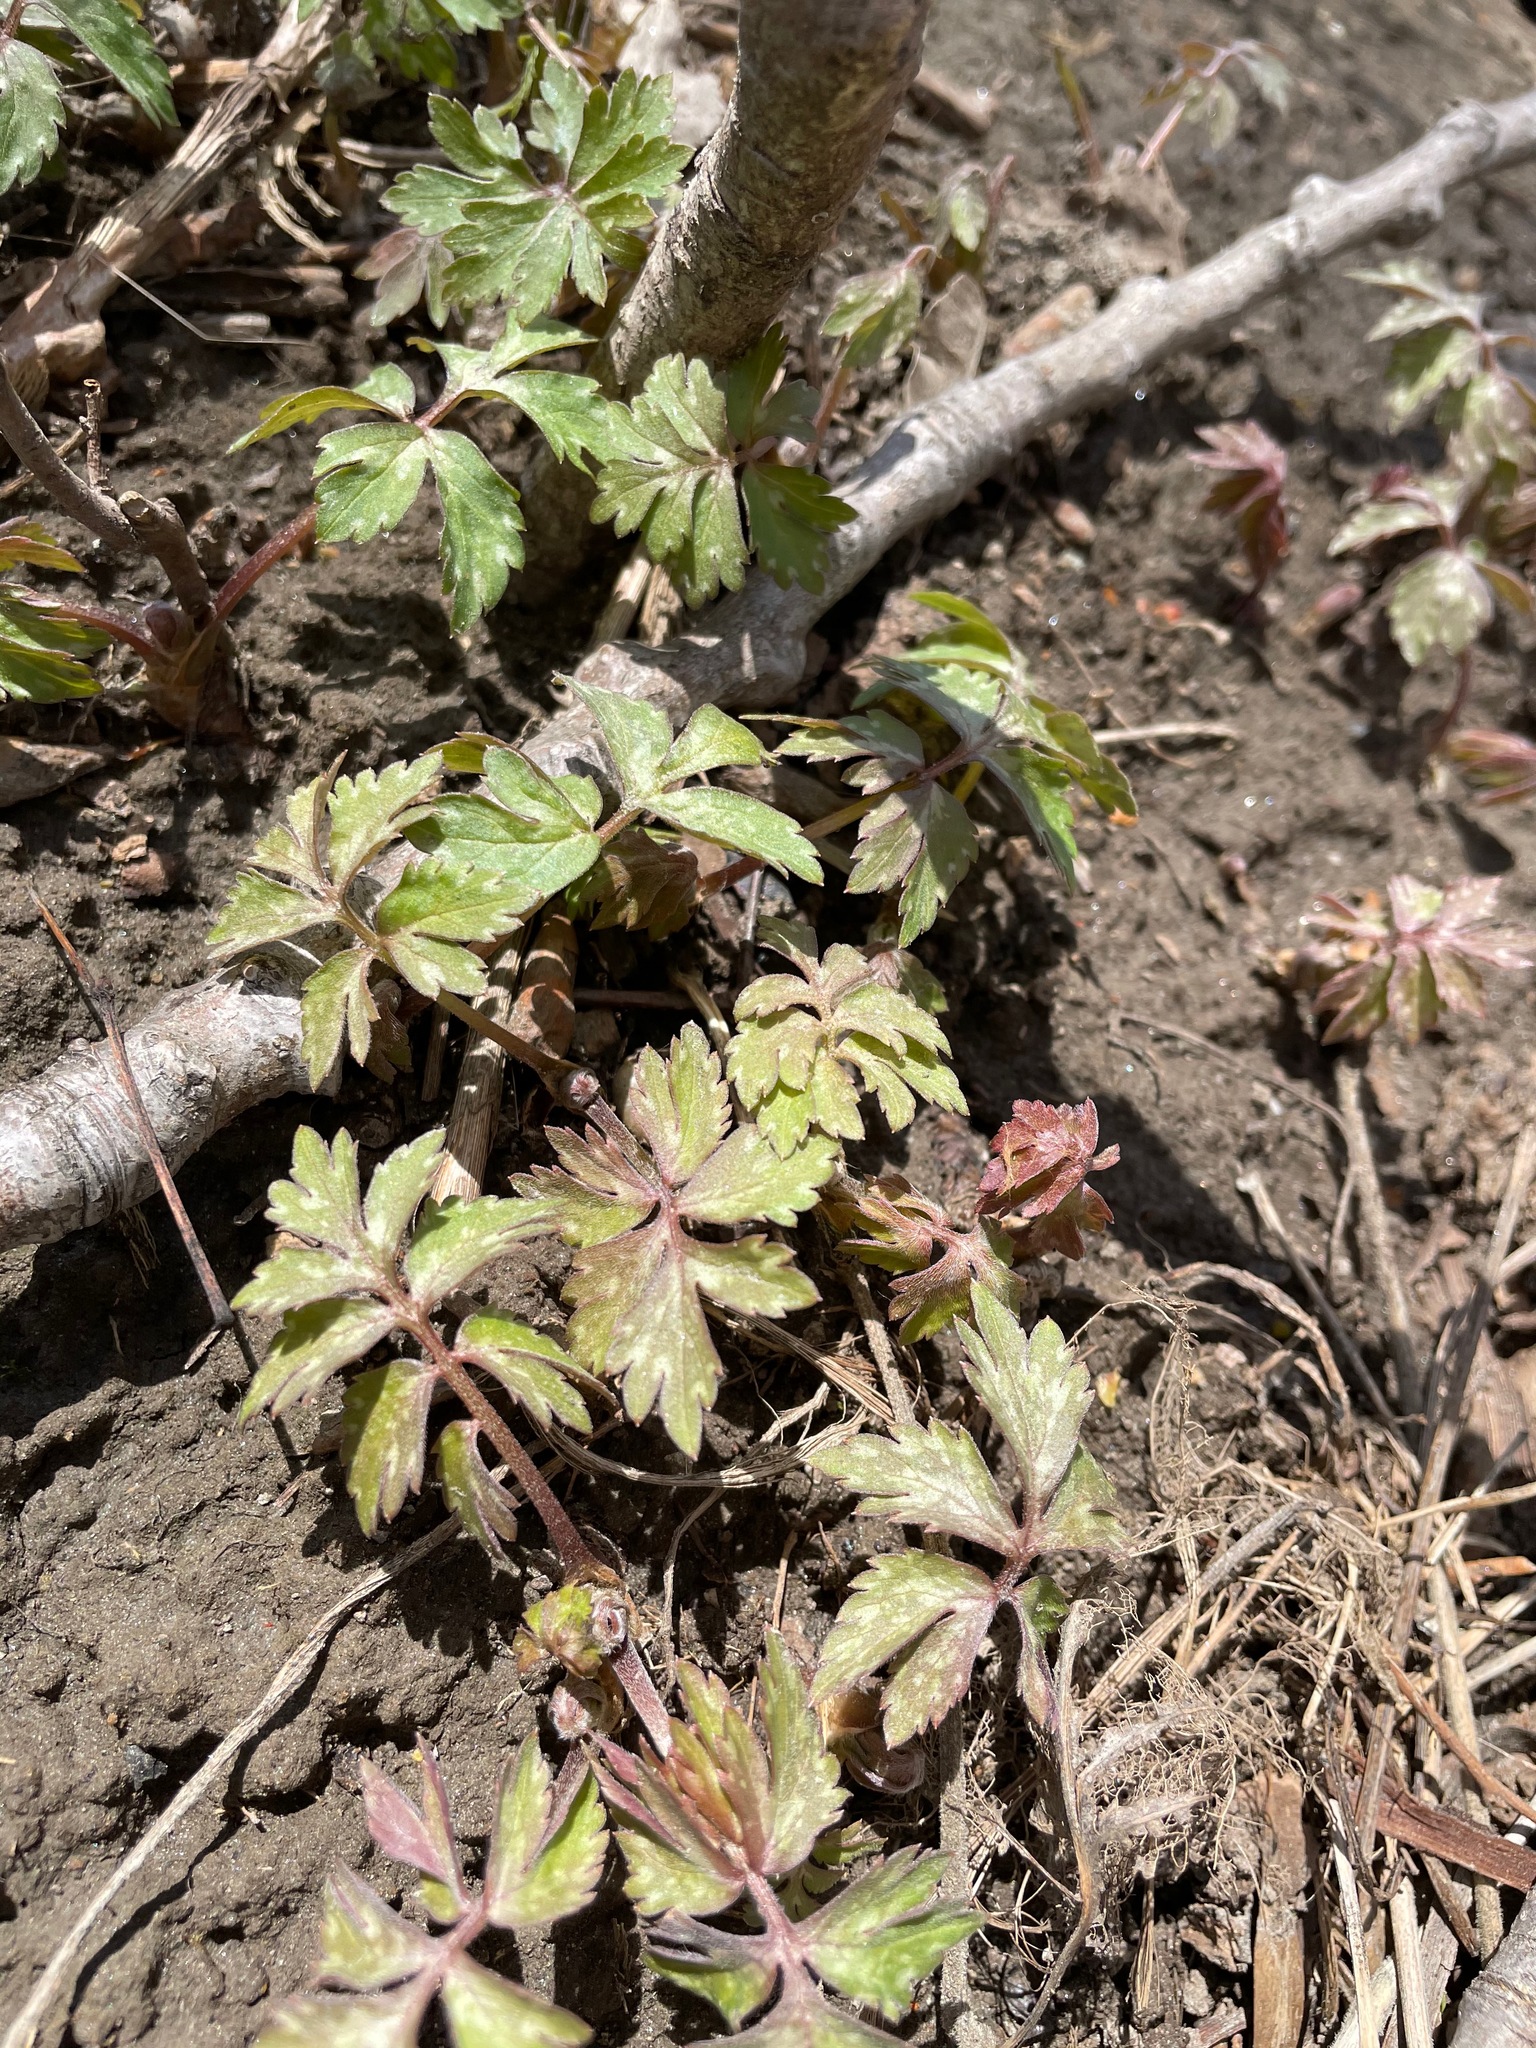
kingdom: Plantae
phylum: Tracheophyta
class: Magnoliopsida
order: Boraginales
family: Hydrophyllaceae
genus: Hydrophyllum
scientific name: Hydrophyllum virginianum
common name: Virginia waterleaf
